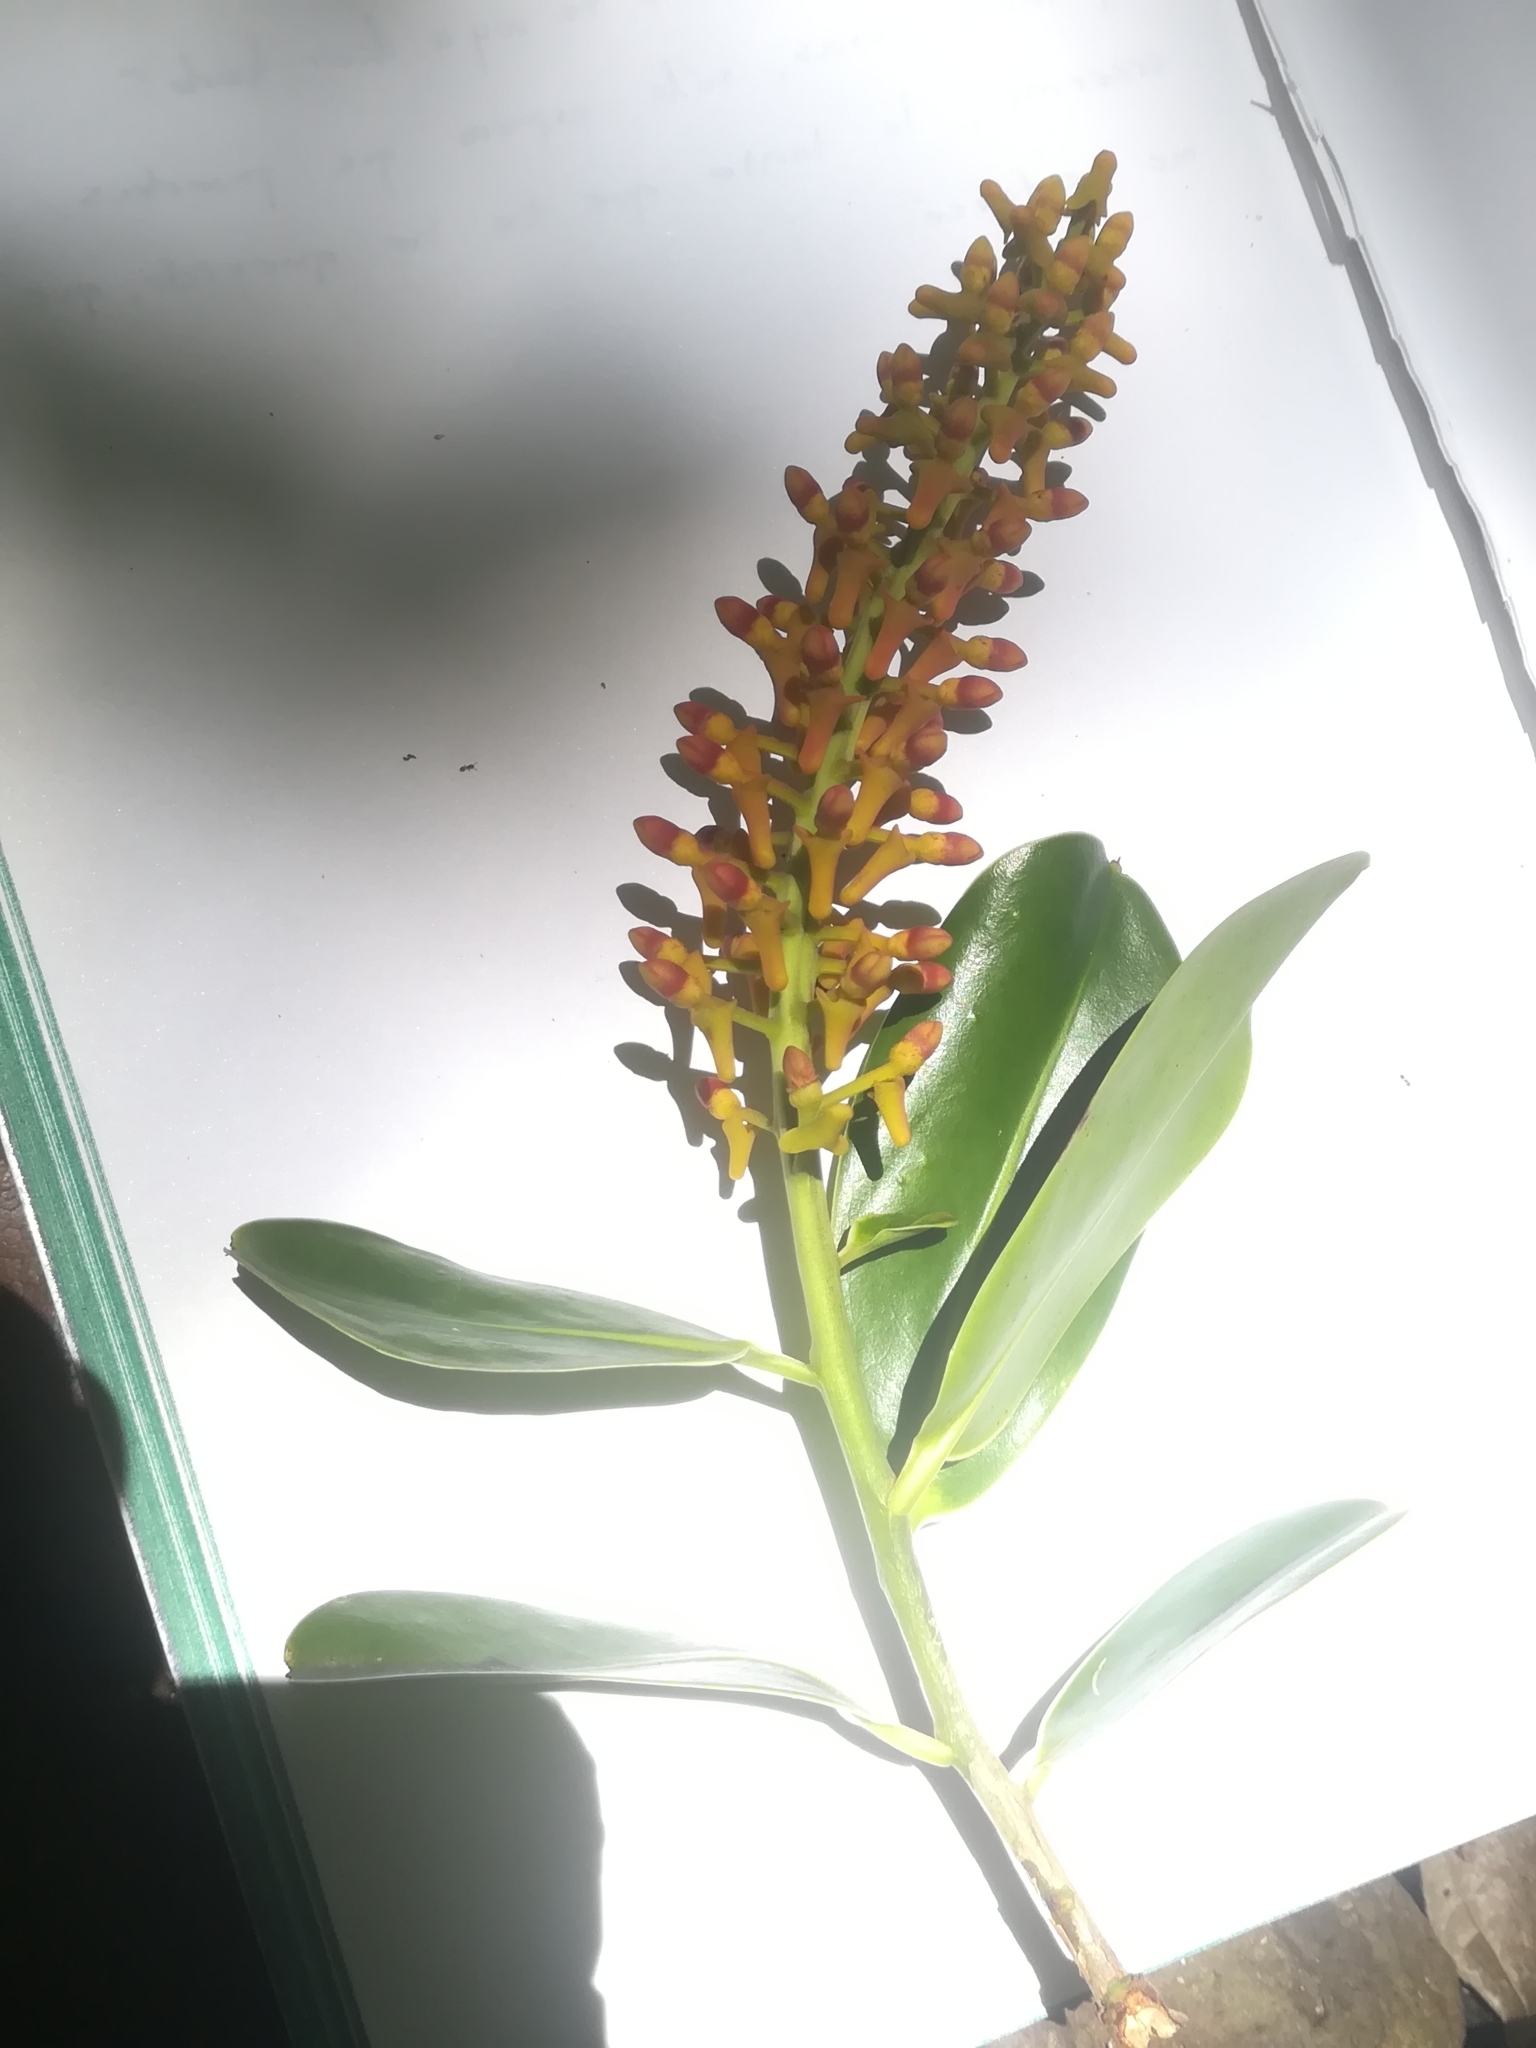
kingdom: Plantae
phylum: Tracheophyta
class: Magnoliopsida
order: Ericales
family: Marcgraviaceae
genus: Souroubea
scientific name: Souroubea loczyi
